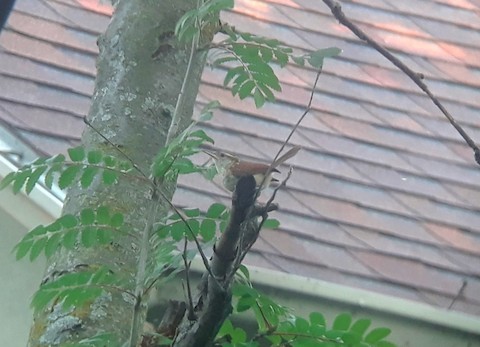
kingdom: Animalia
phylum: Chordata
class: Aves
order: Passeriformes
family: Troglodytidae
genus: Thryothorus
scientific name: Thryothorus ludovicianus
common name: Carolina wren
